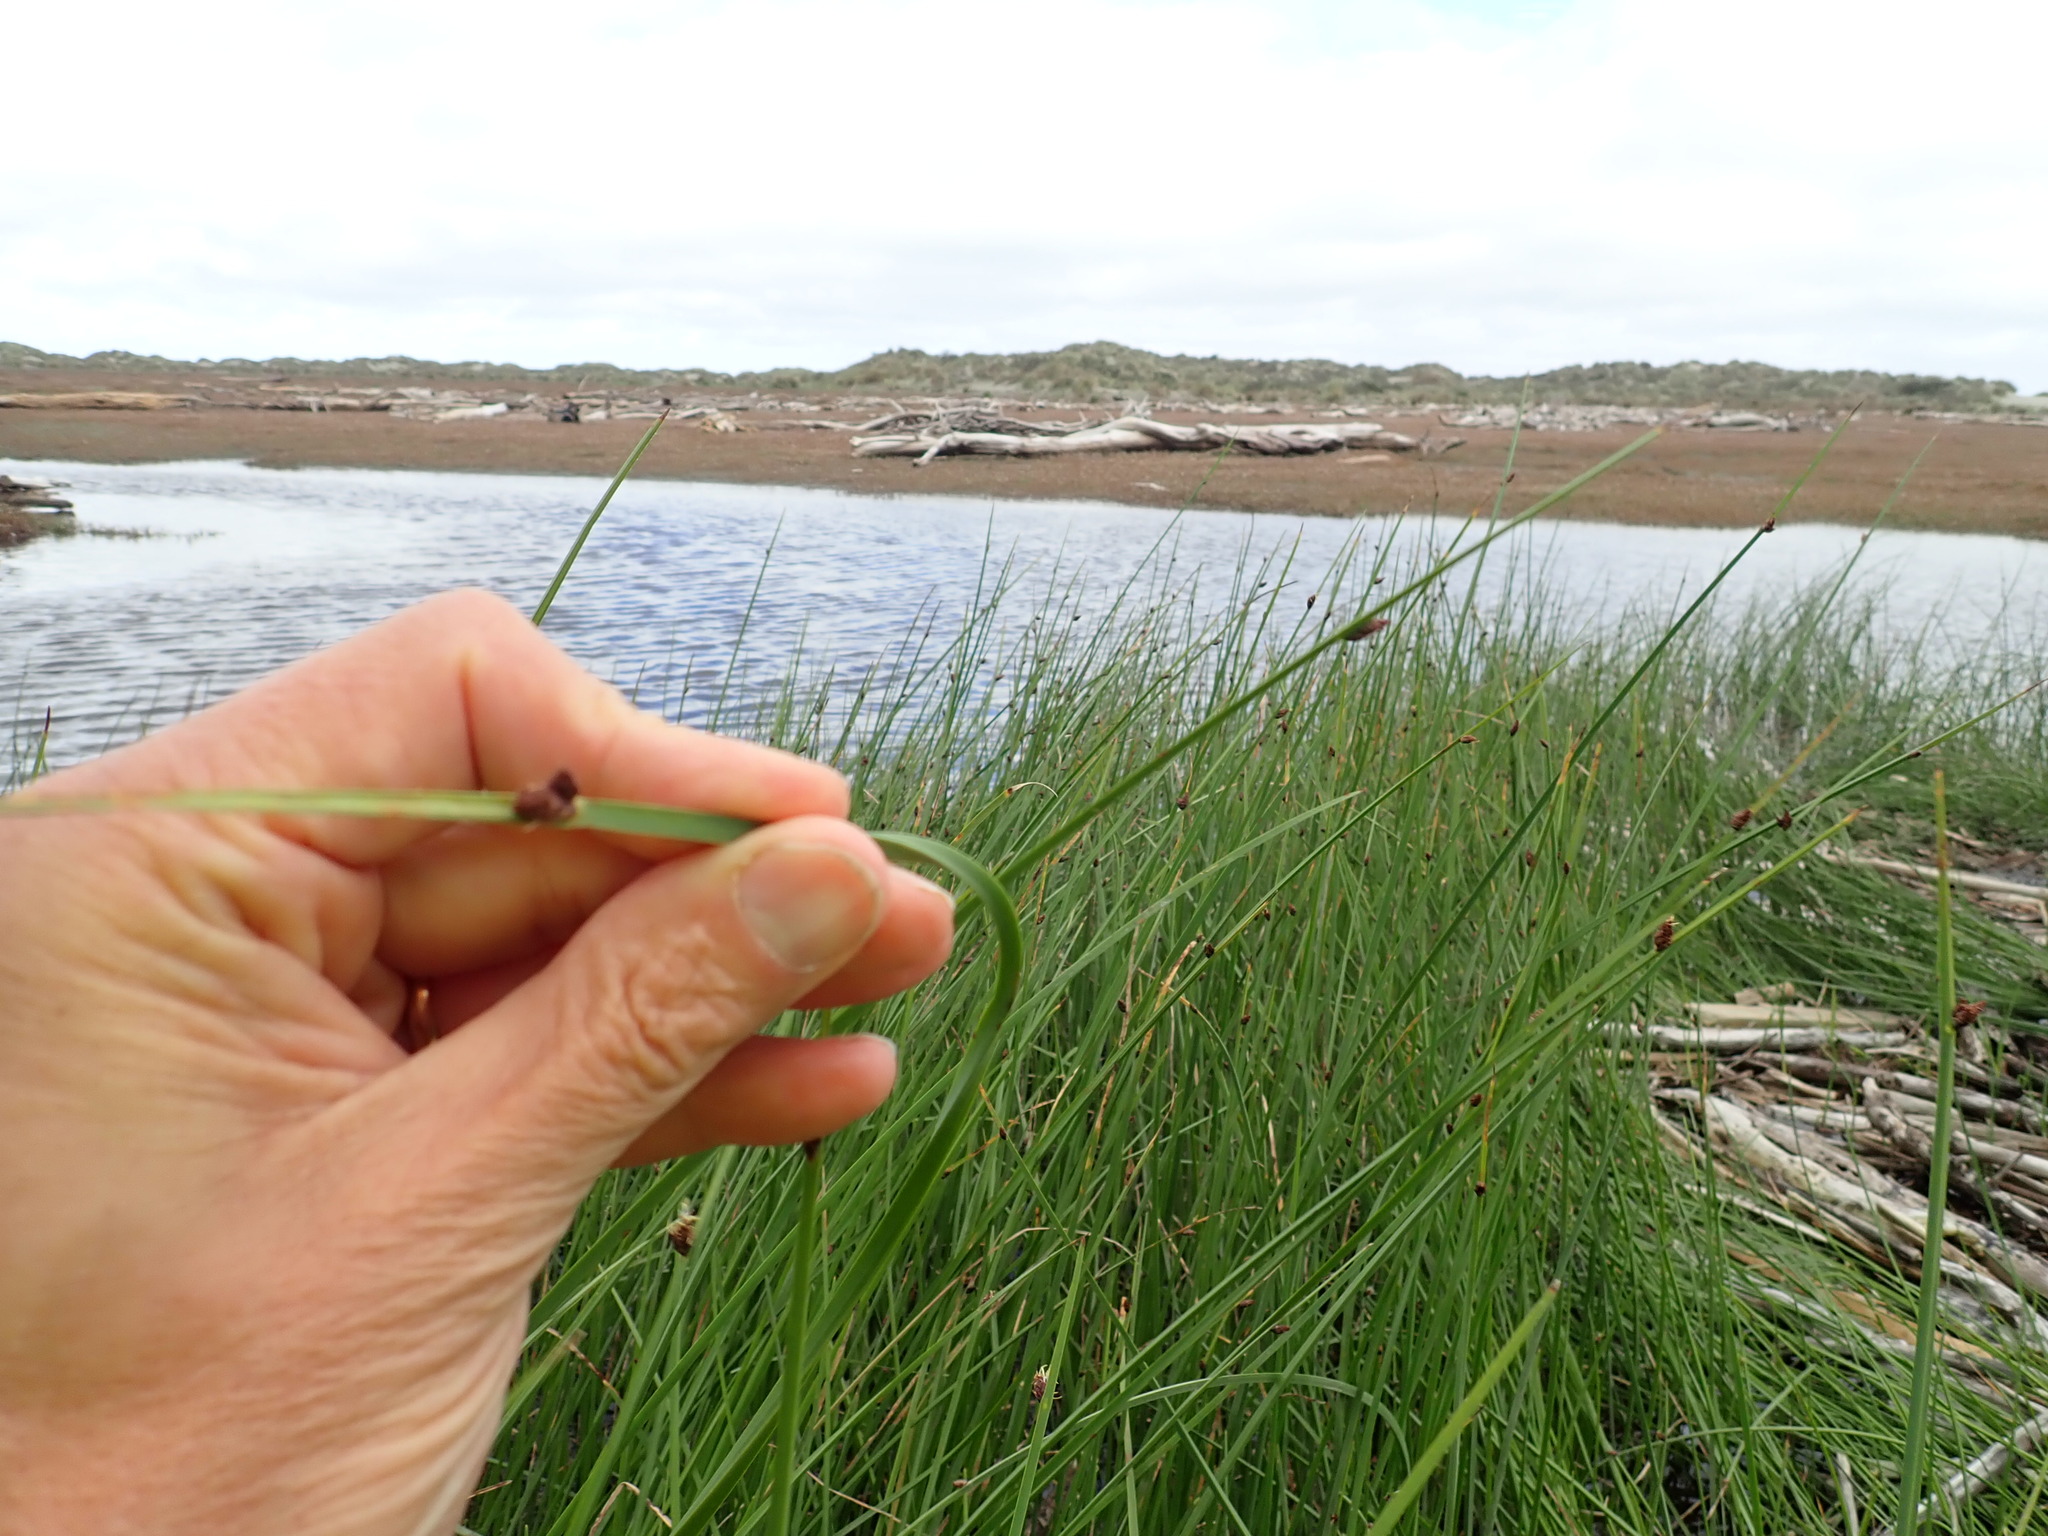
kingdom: Plantae
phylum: Tracheophyta
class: Liliopsida
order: Poales
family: Cyperaceae
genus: Schoenoplectus
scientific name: Schoenoplectus pungens
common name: Sharp club-rush
